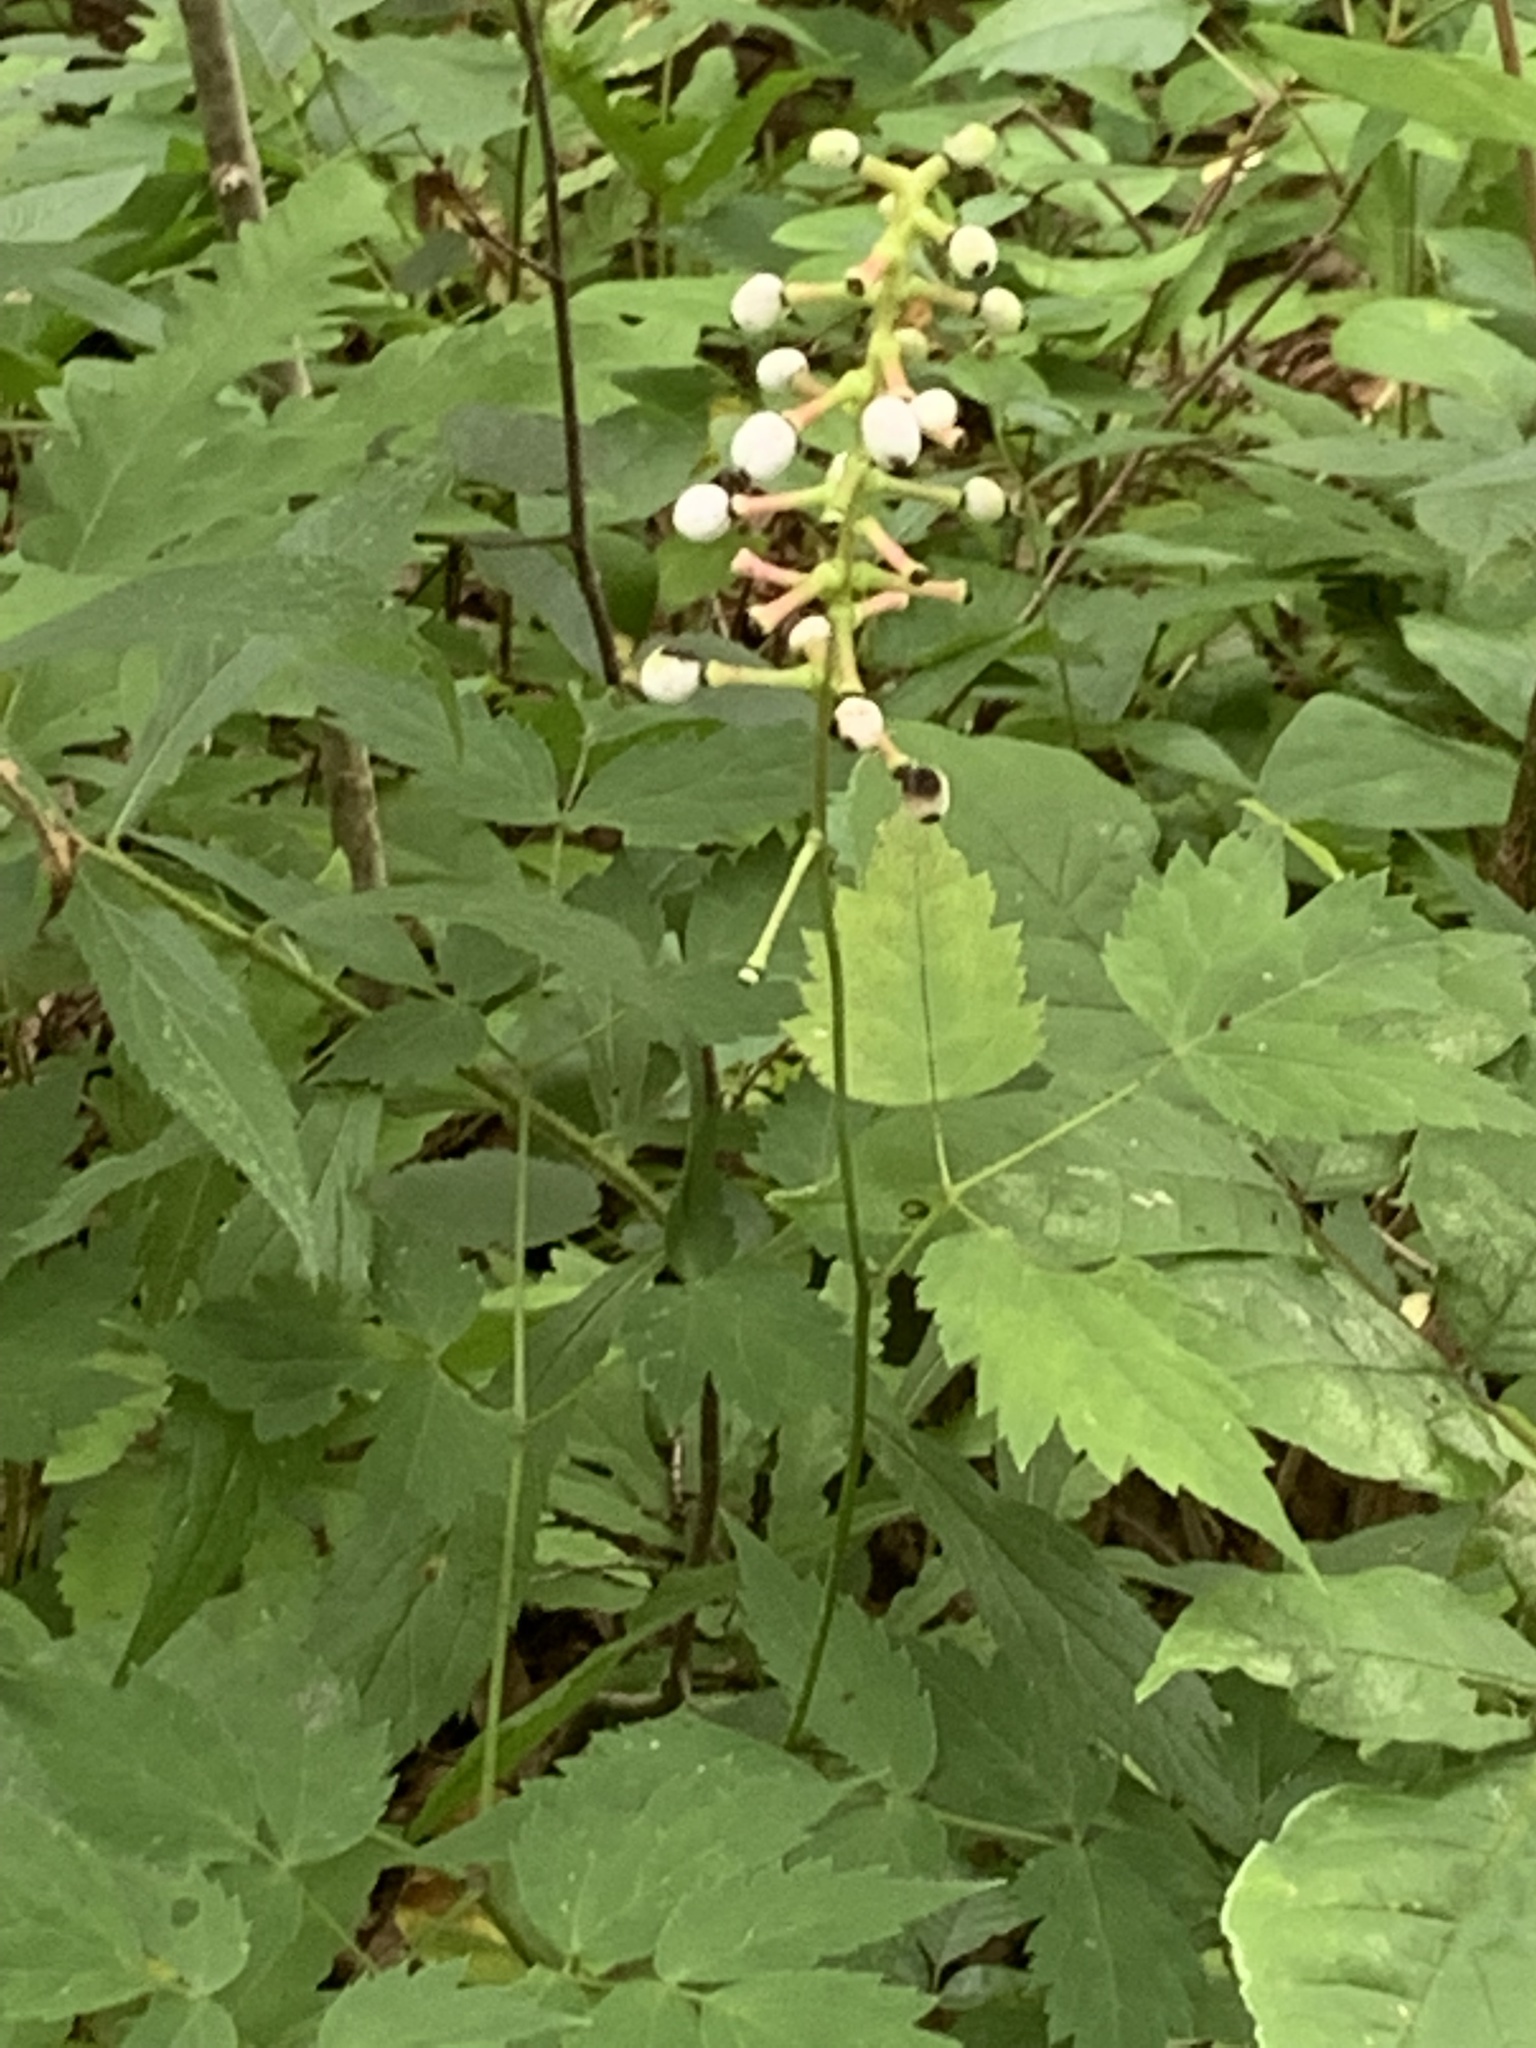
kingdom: Plantae
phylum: Tracheophyta
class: Magnoliopsida
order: Ranunculales
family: Ranunculaceae
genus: Actaea
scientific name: Actaea pachypoda
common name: Doll's-eyes
